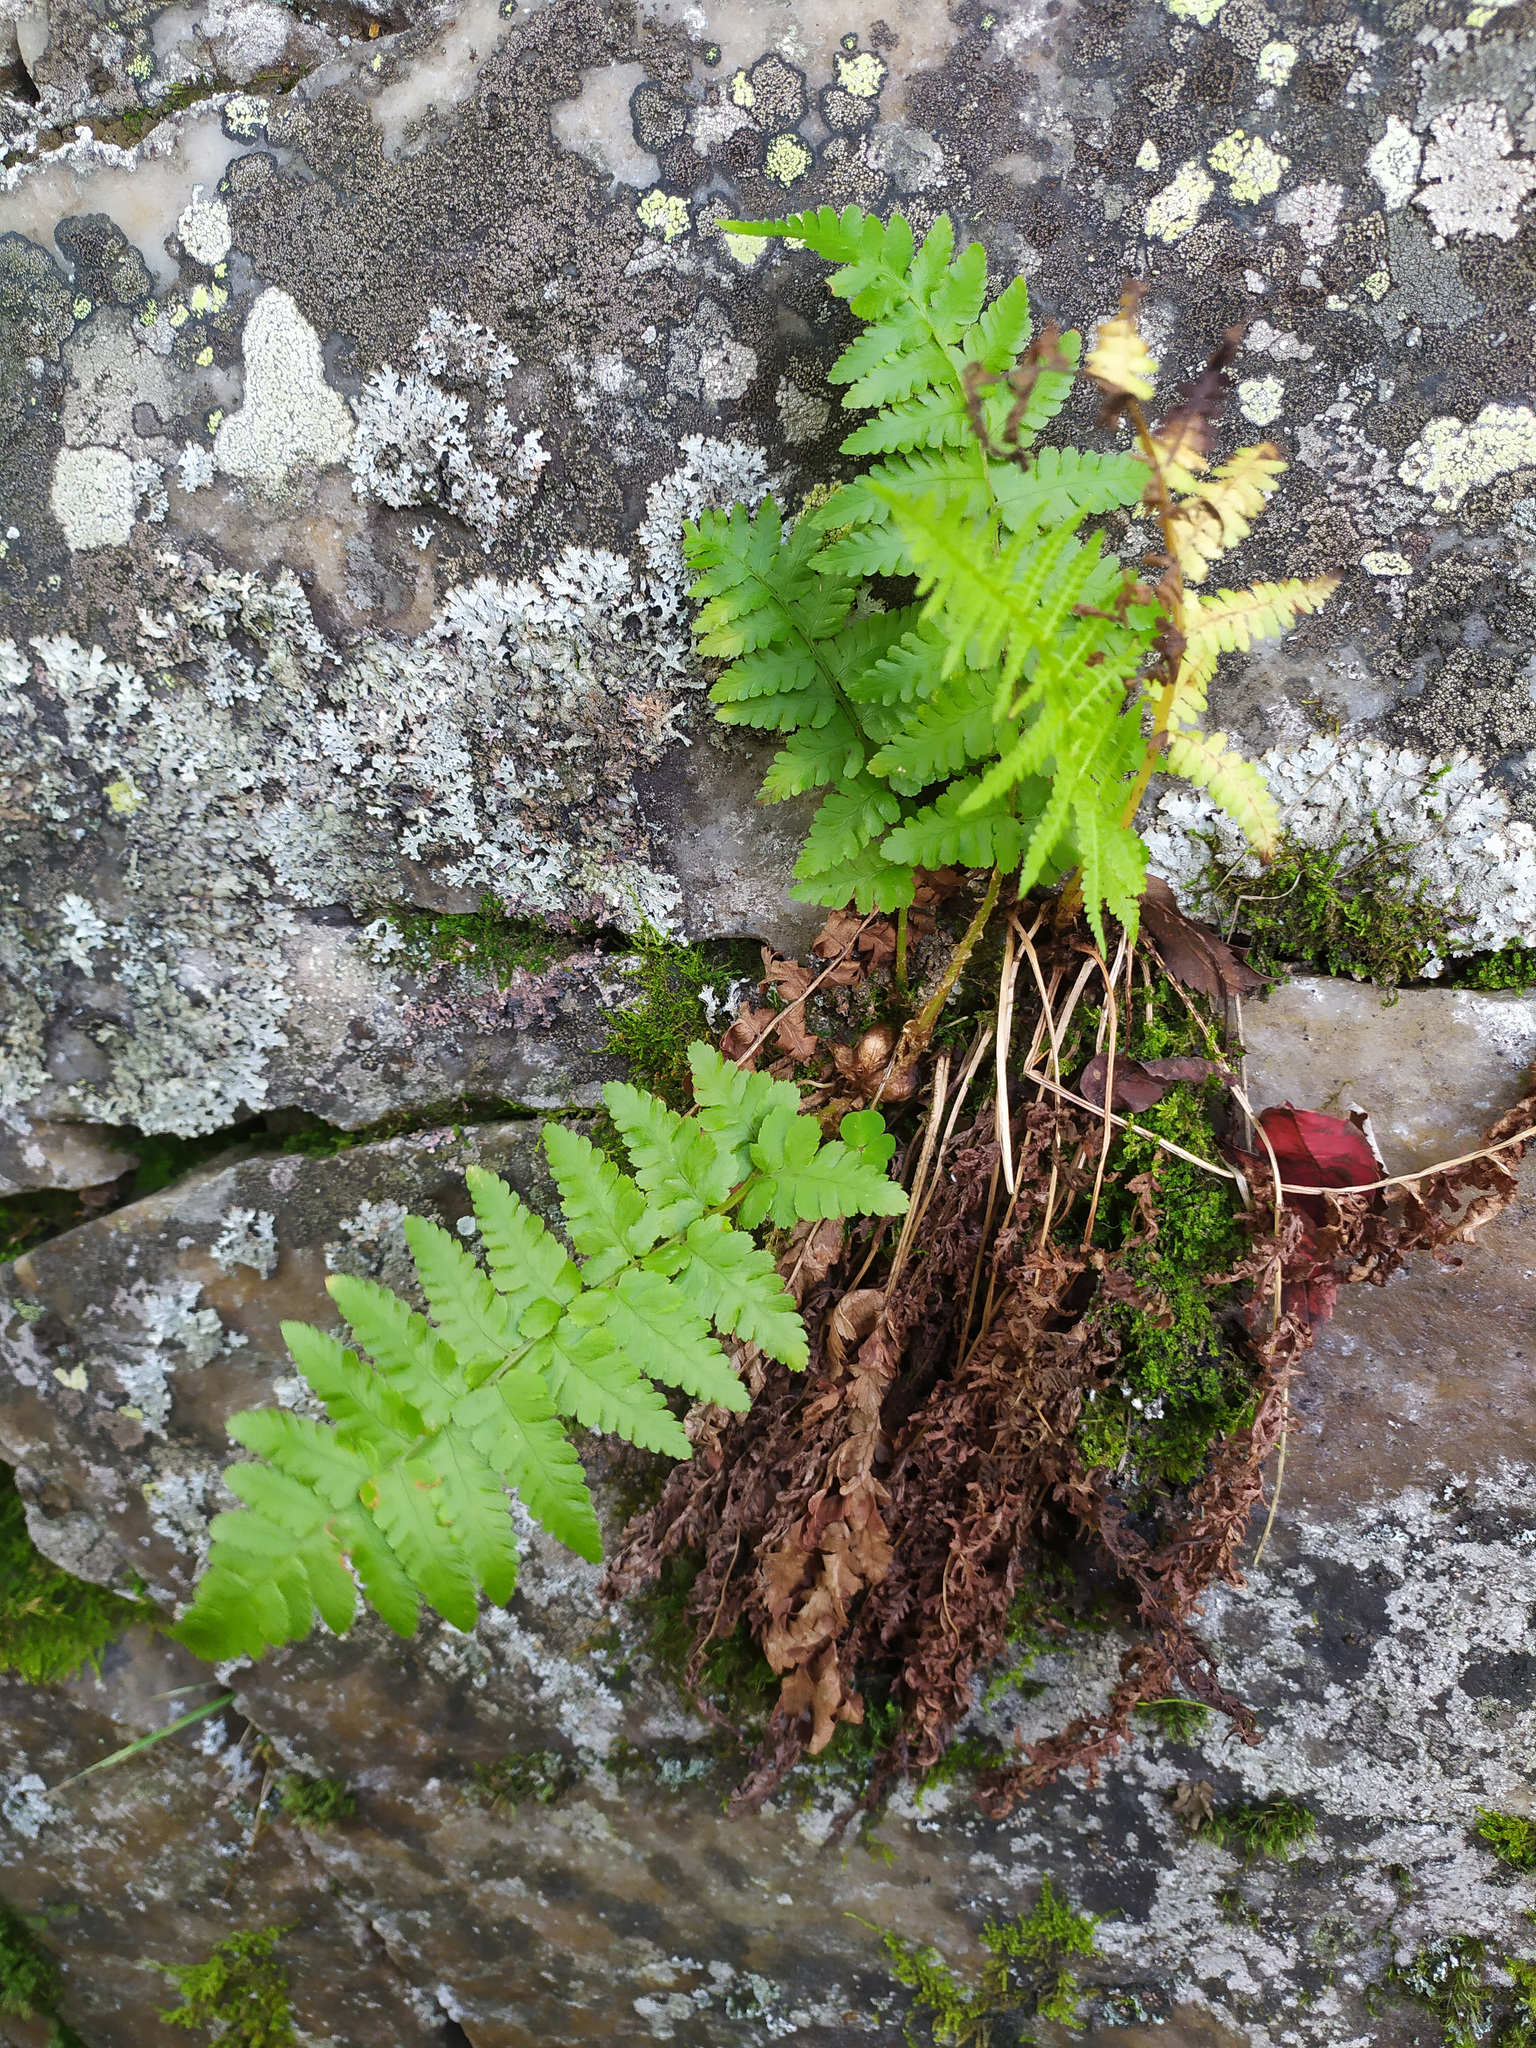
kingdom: Plantae
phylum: Tracheophyta
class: Polypodiopsida
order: Polypodiales
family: Dryopteridaceae
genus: Dryopteris
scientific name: Dryopteris filix-mas
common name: Male fern
